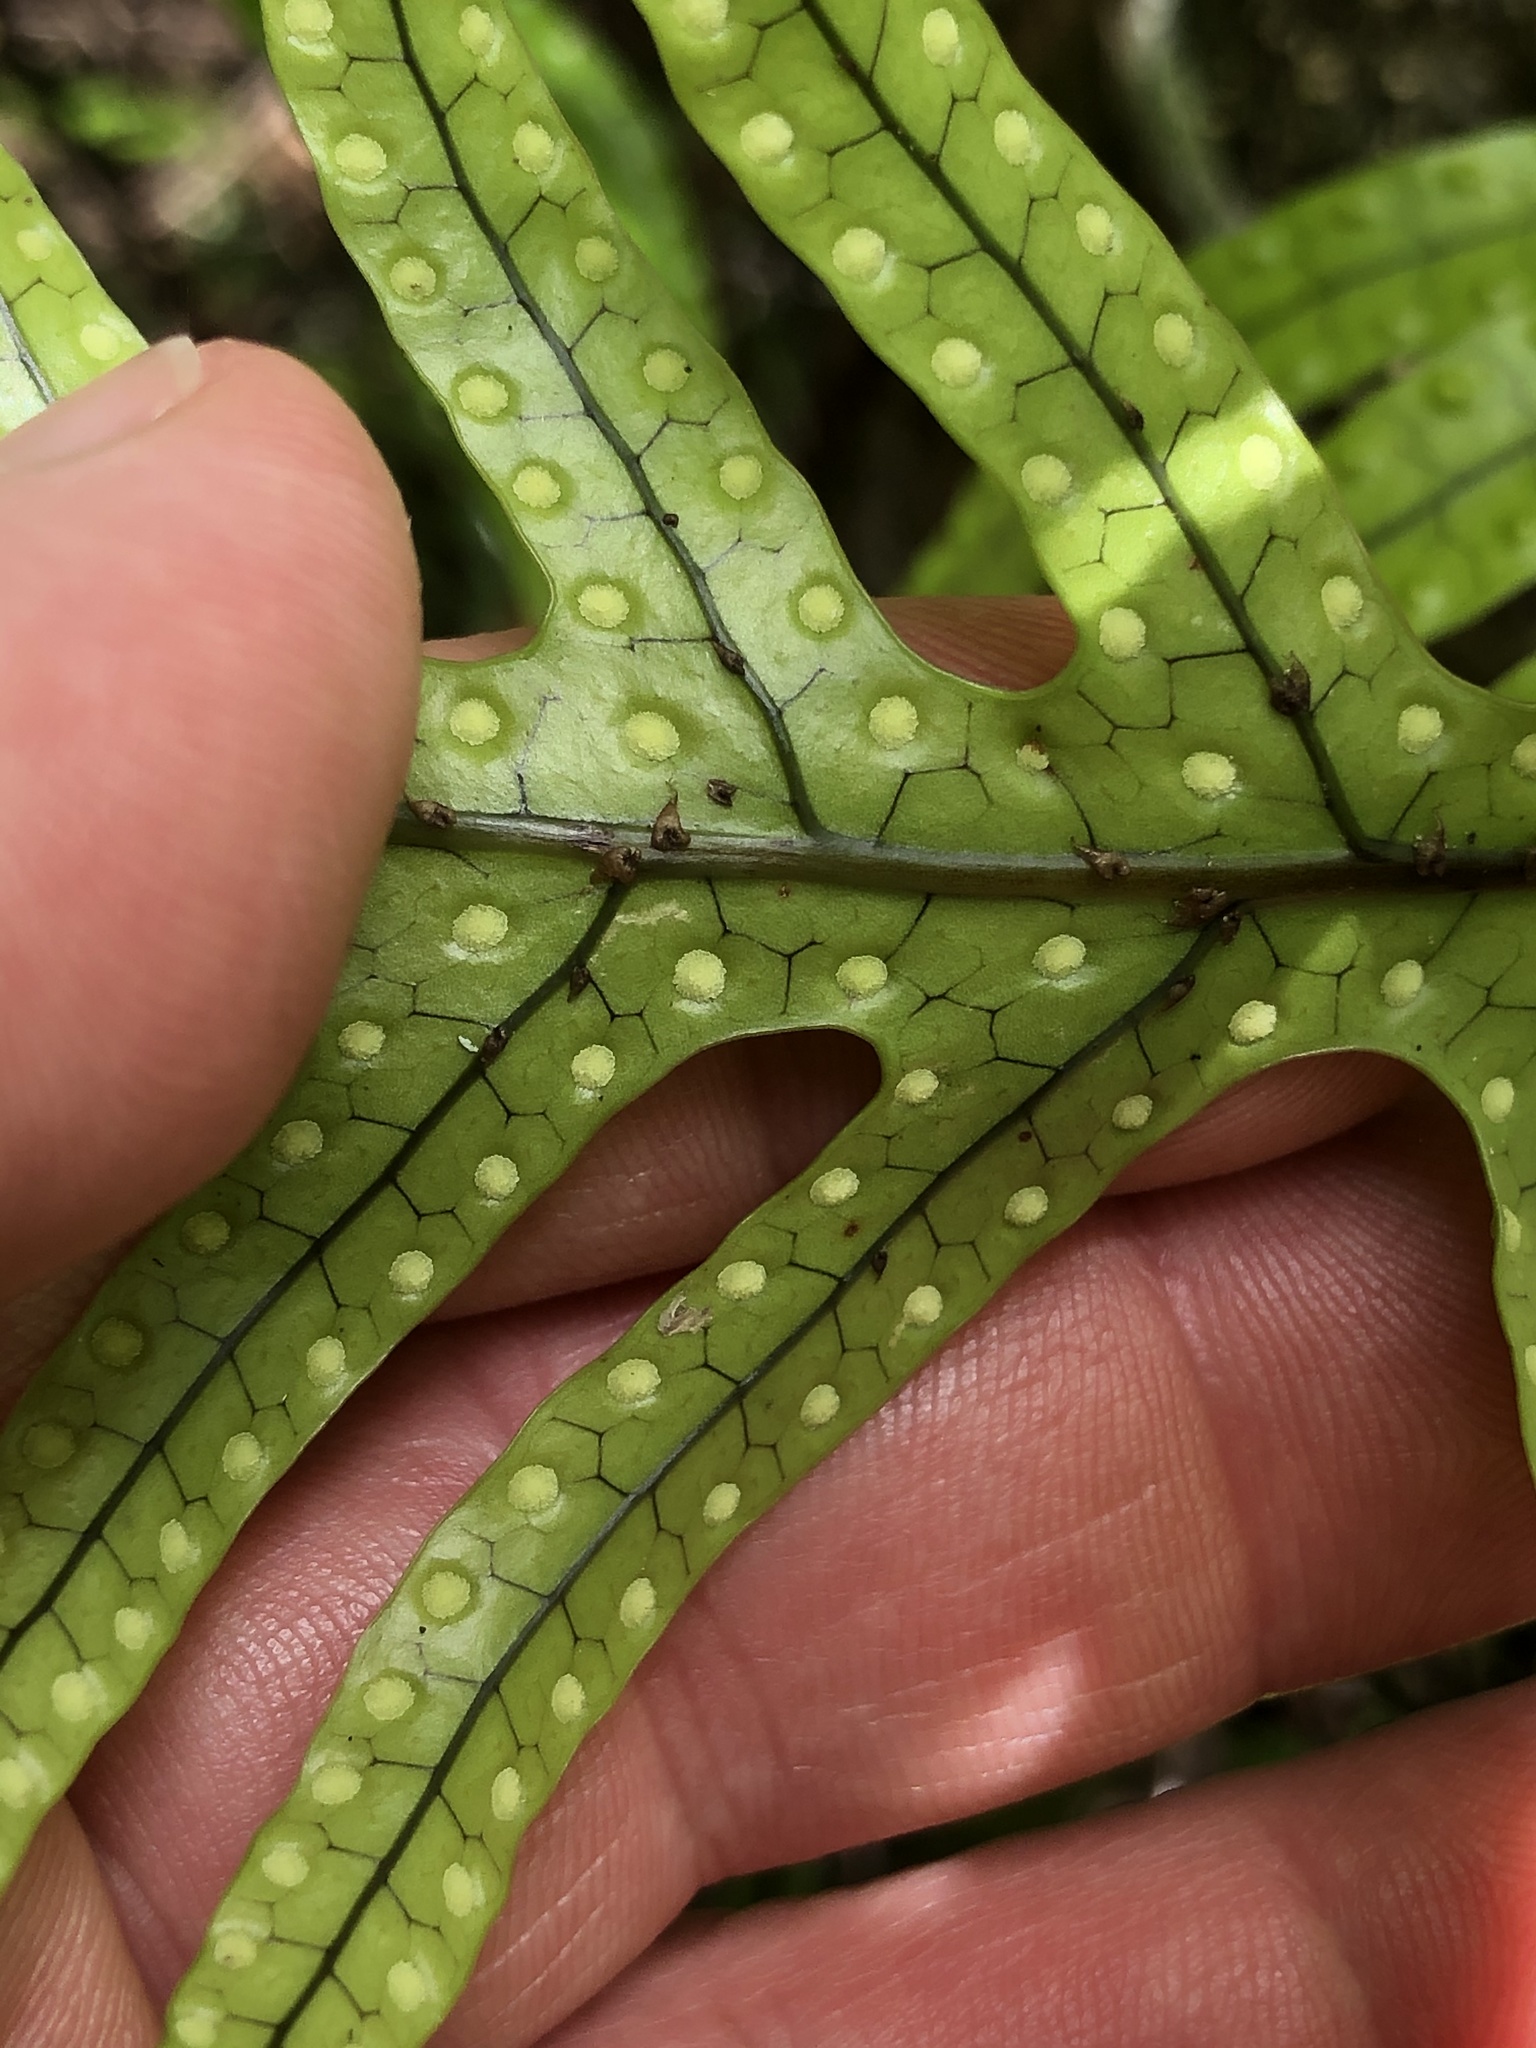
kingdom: Plantae
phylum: Tracheophyta
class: Polypodiopsida
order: Polypodiales
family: Polypodiaceae
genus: Lecanopteris
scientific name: Lecanopteris pustulata
